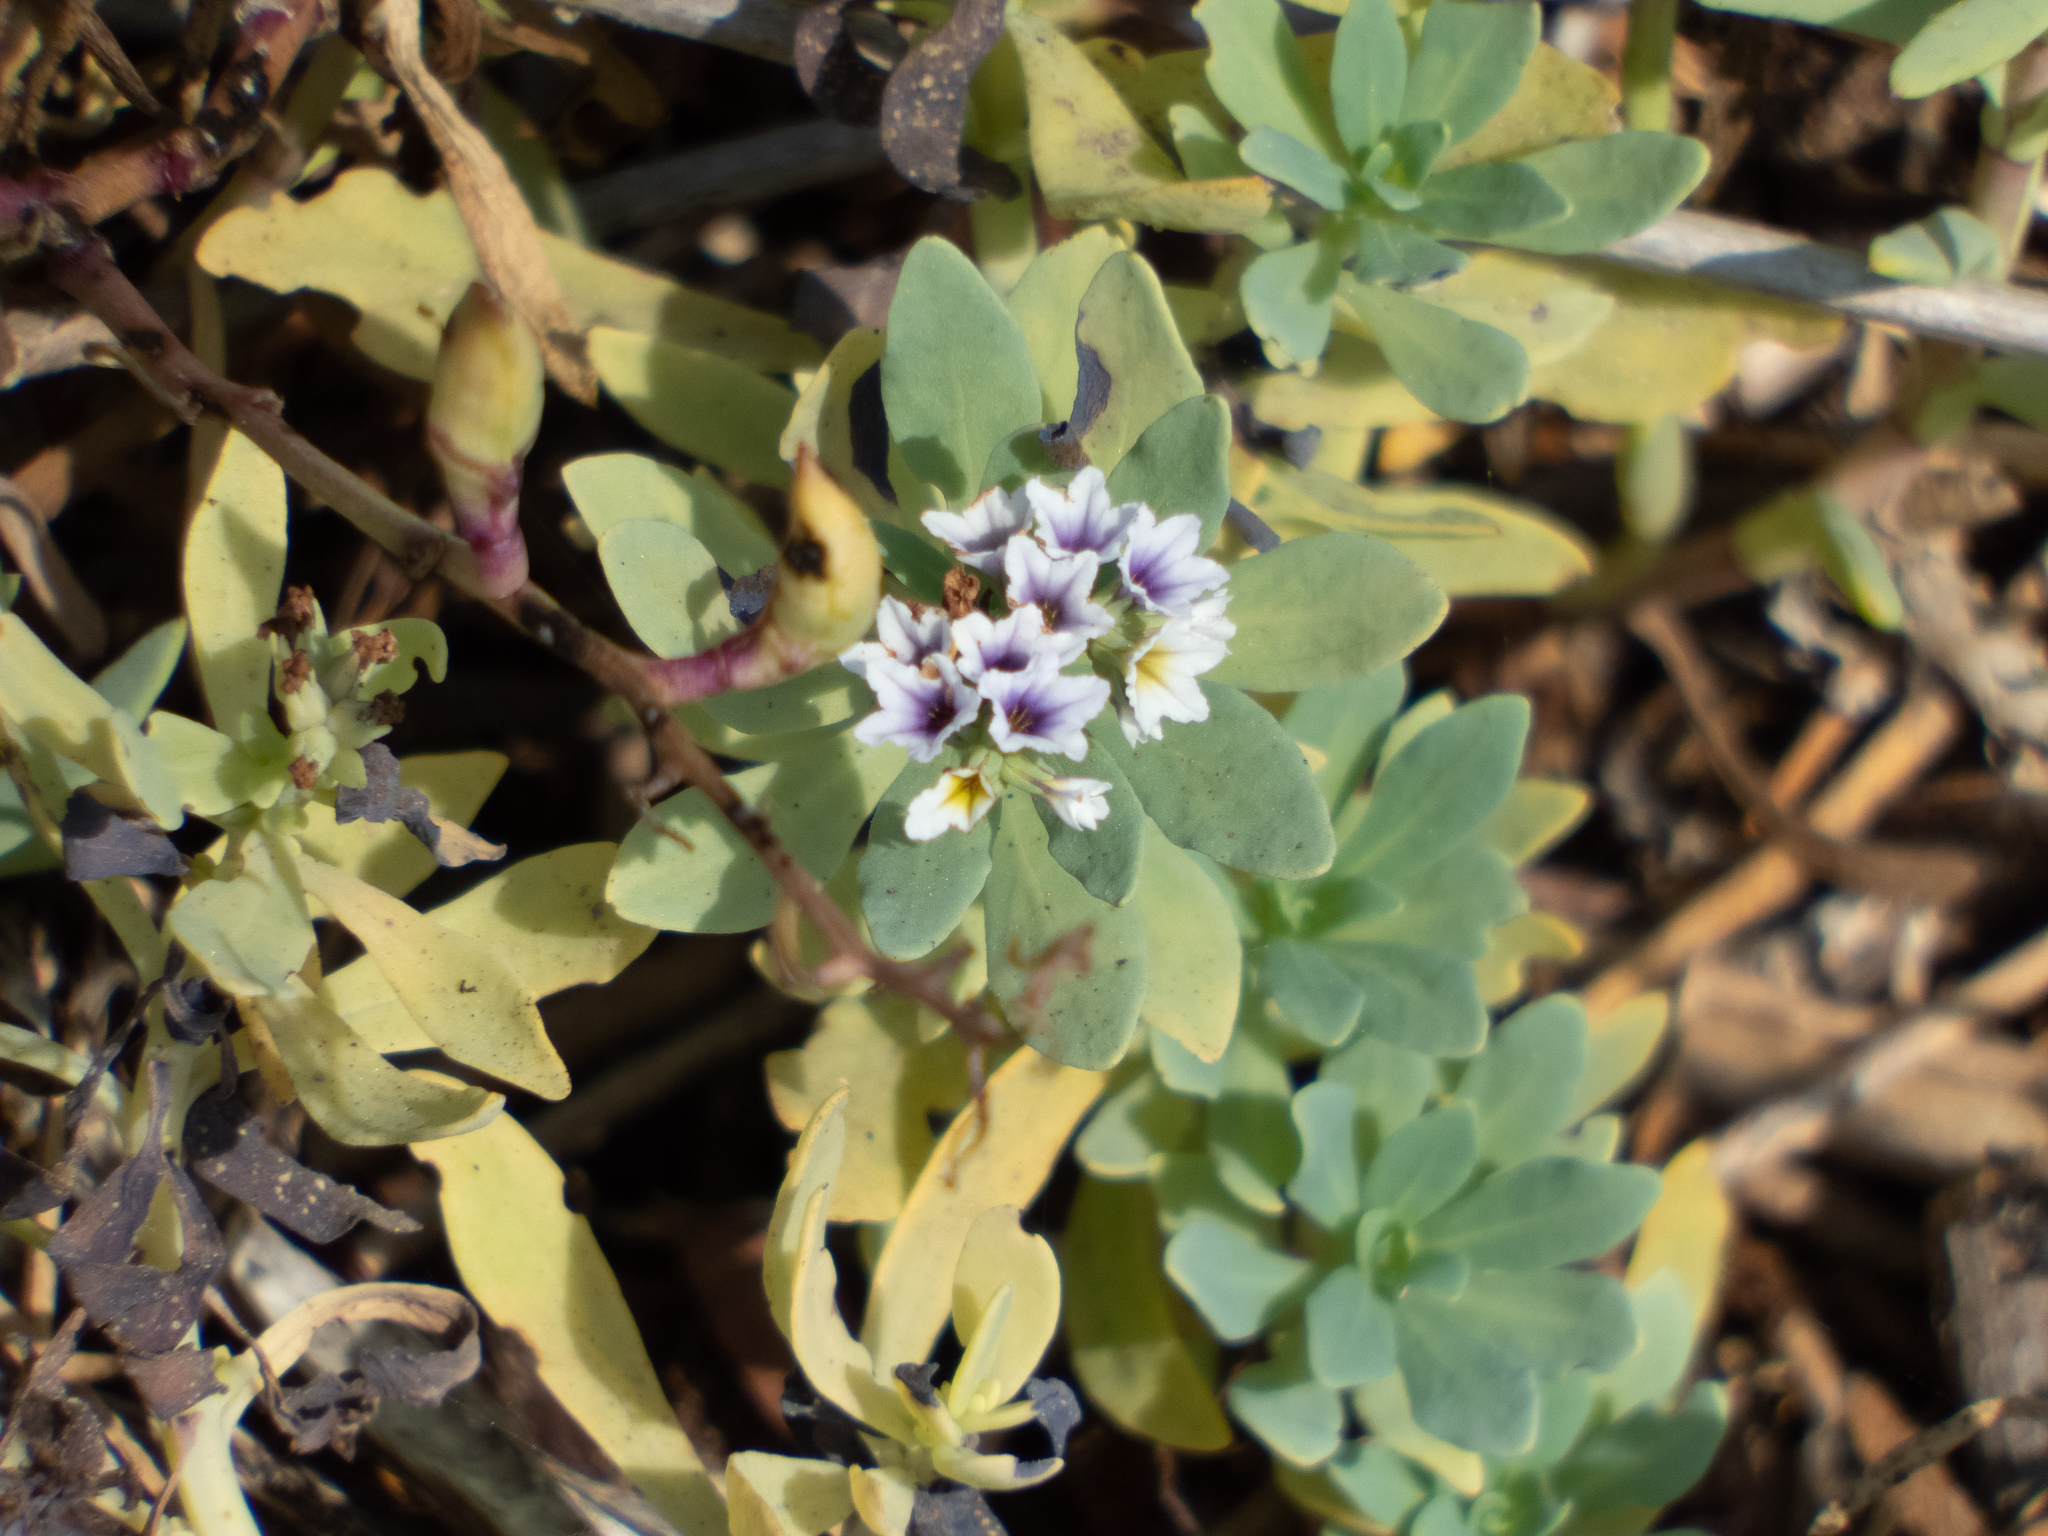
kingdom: Plantae
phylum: Tracheophyta
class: Magnoliopsida
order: Boraginales
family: Heliotropiaceae
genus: Heliotropium
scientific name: Heliotropium curassavicum
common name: Seaside heliotrope
